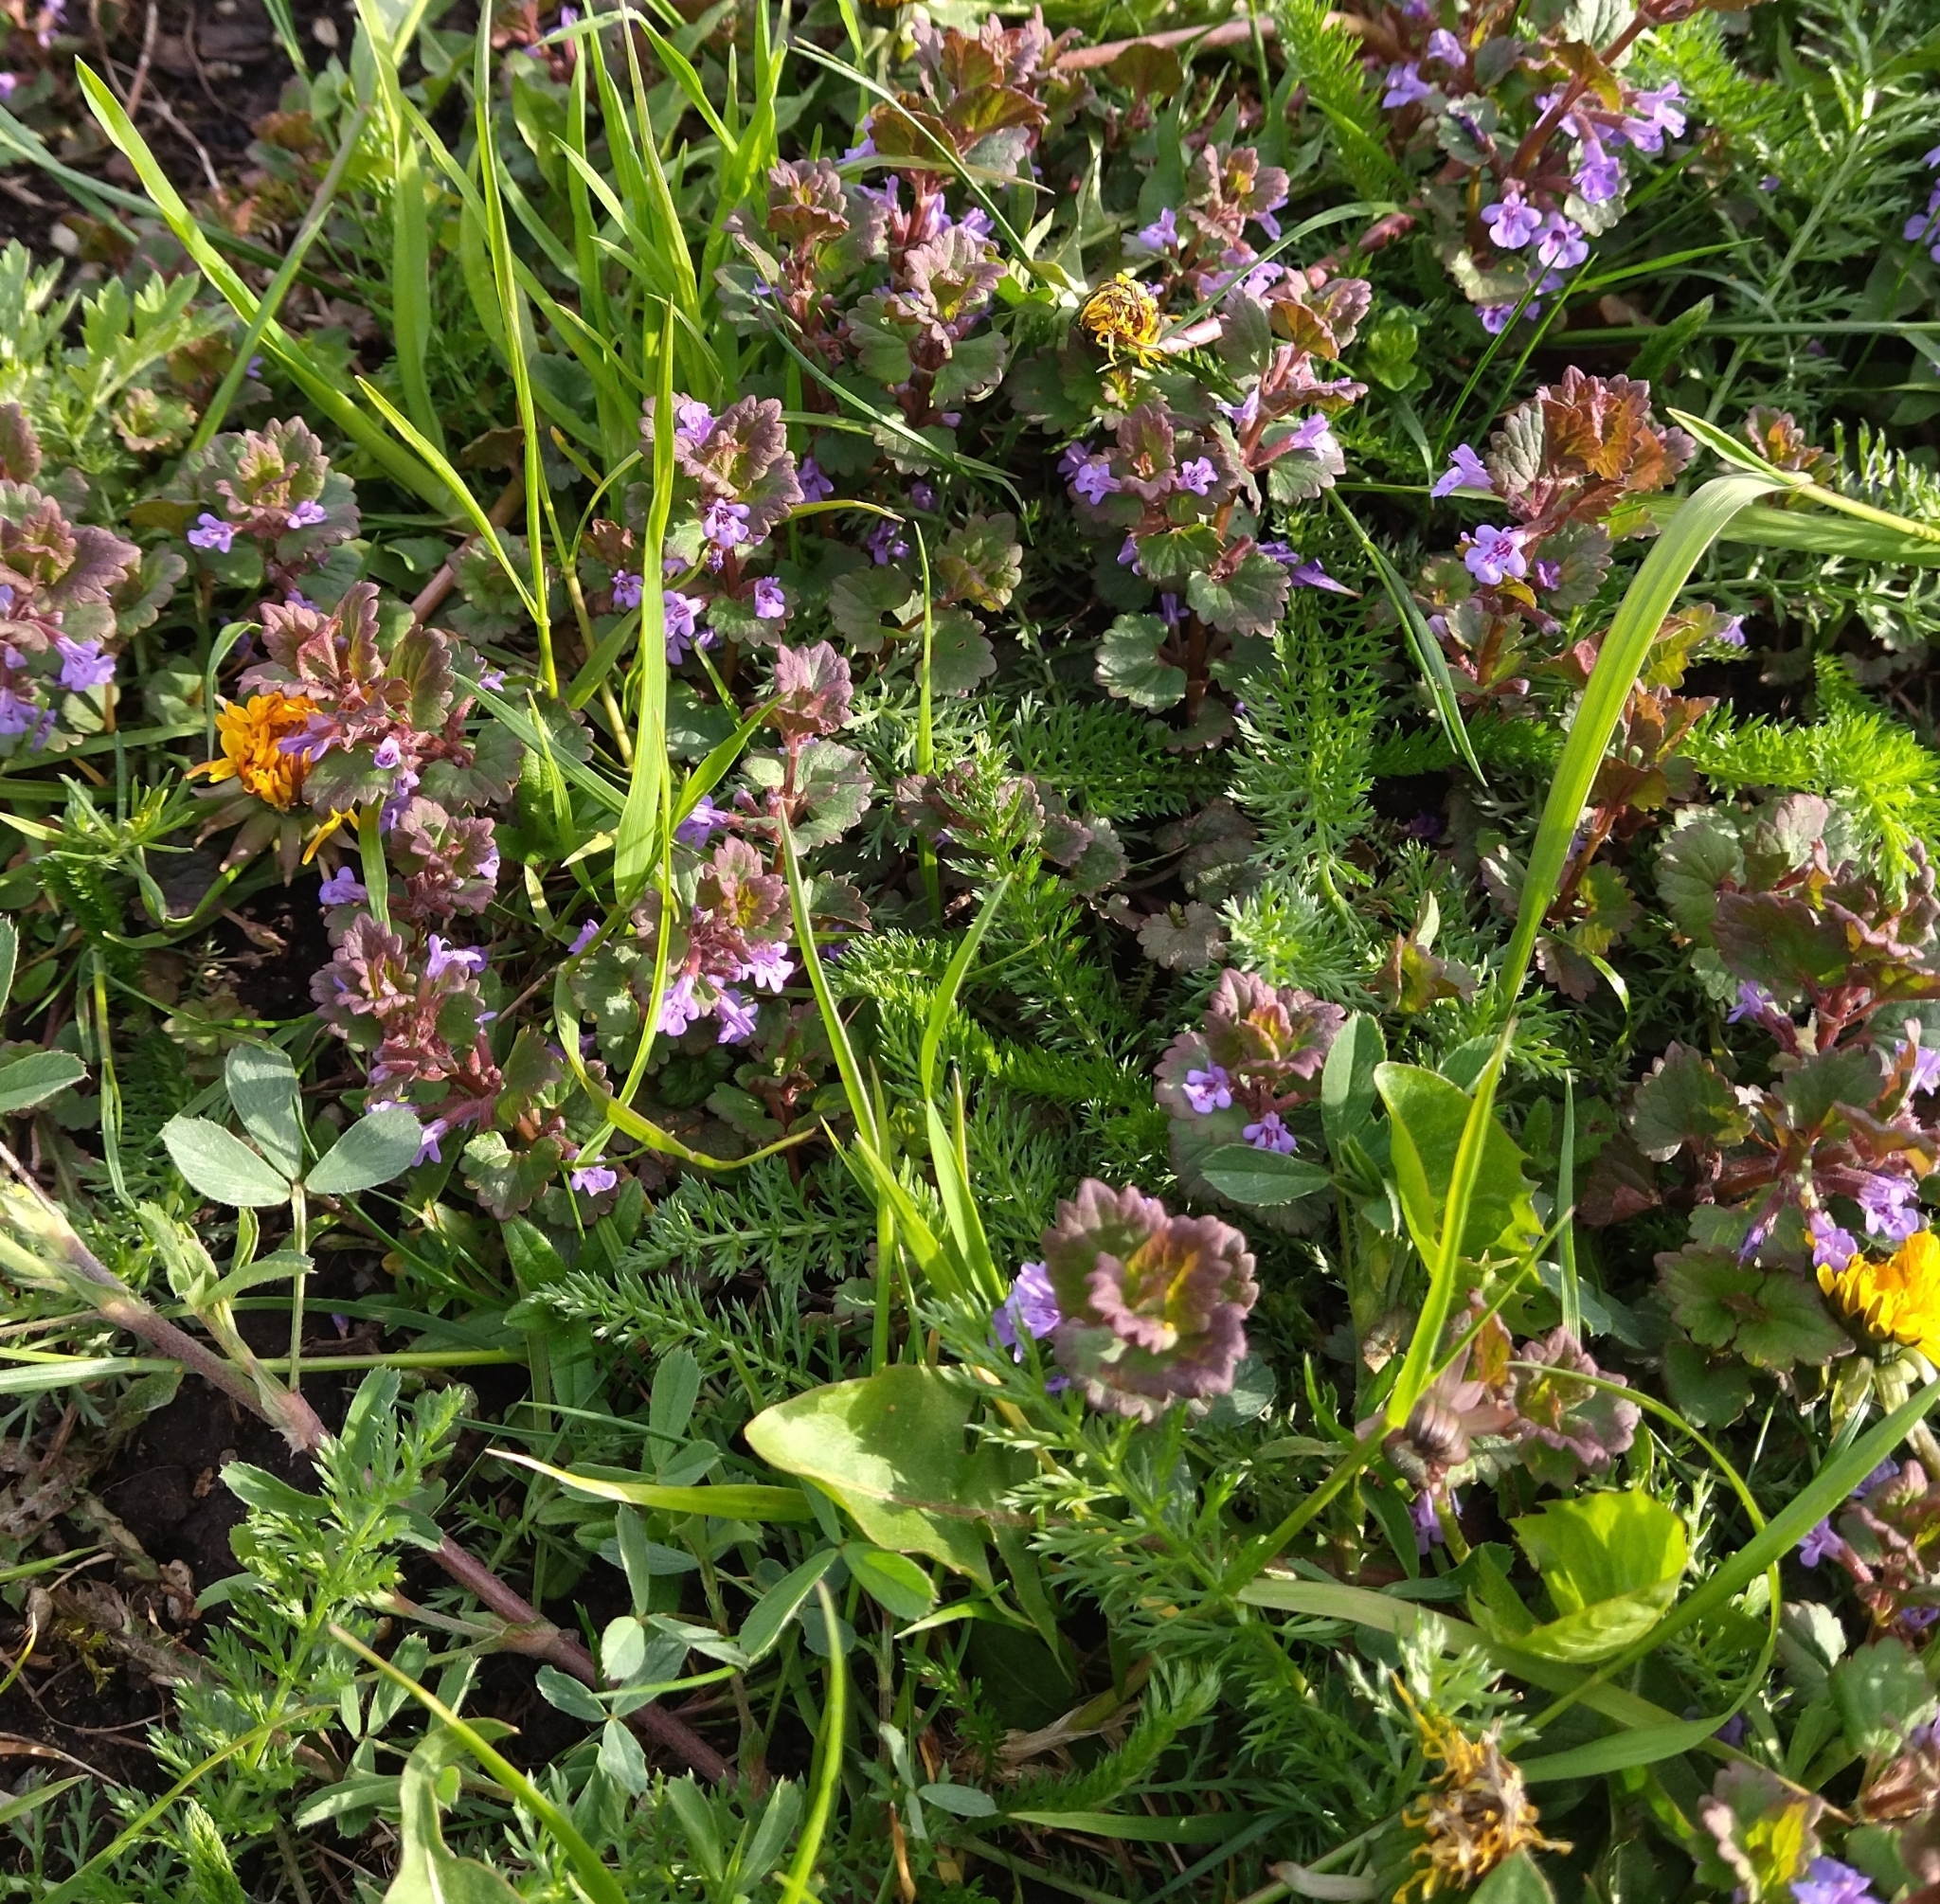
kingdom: Plantae
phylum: Tracheophyta
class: Magnoliopsida
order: Lamiales
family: Lamiaceae
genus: Glechoma
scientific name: Glechoma hederacea
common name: Ground ivy
